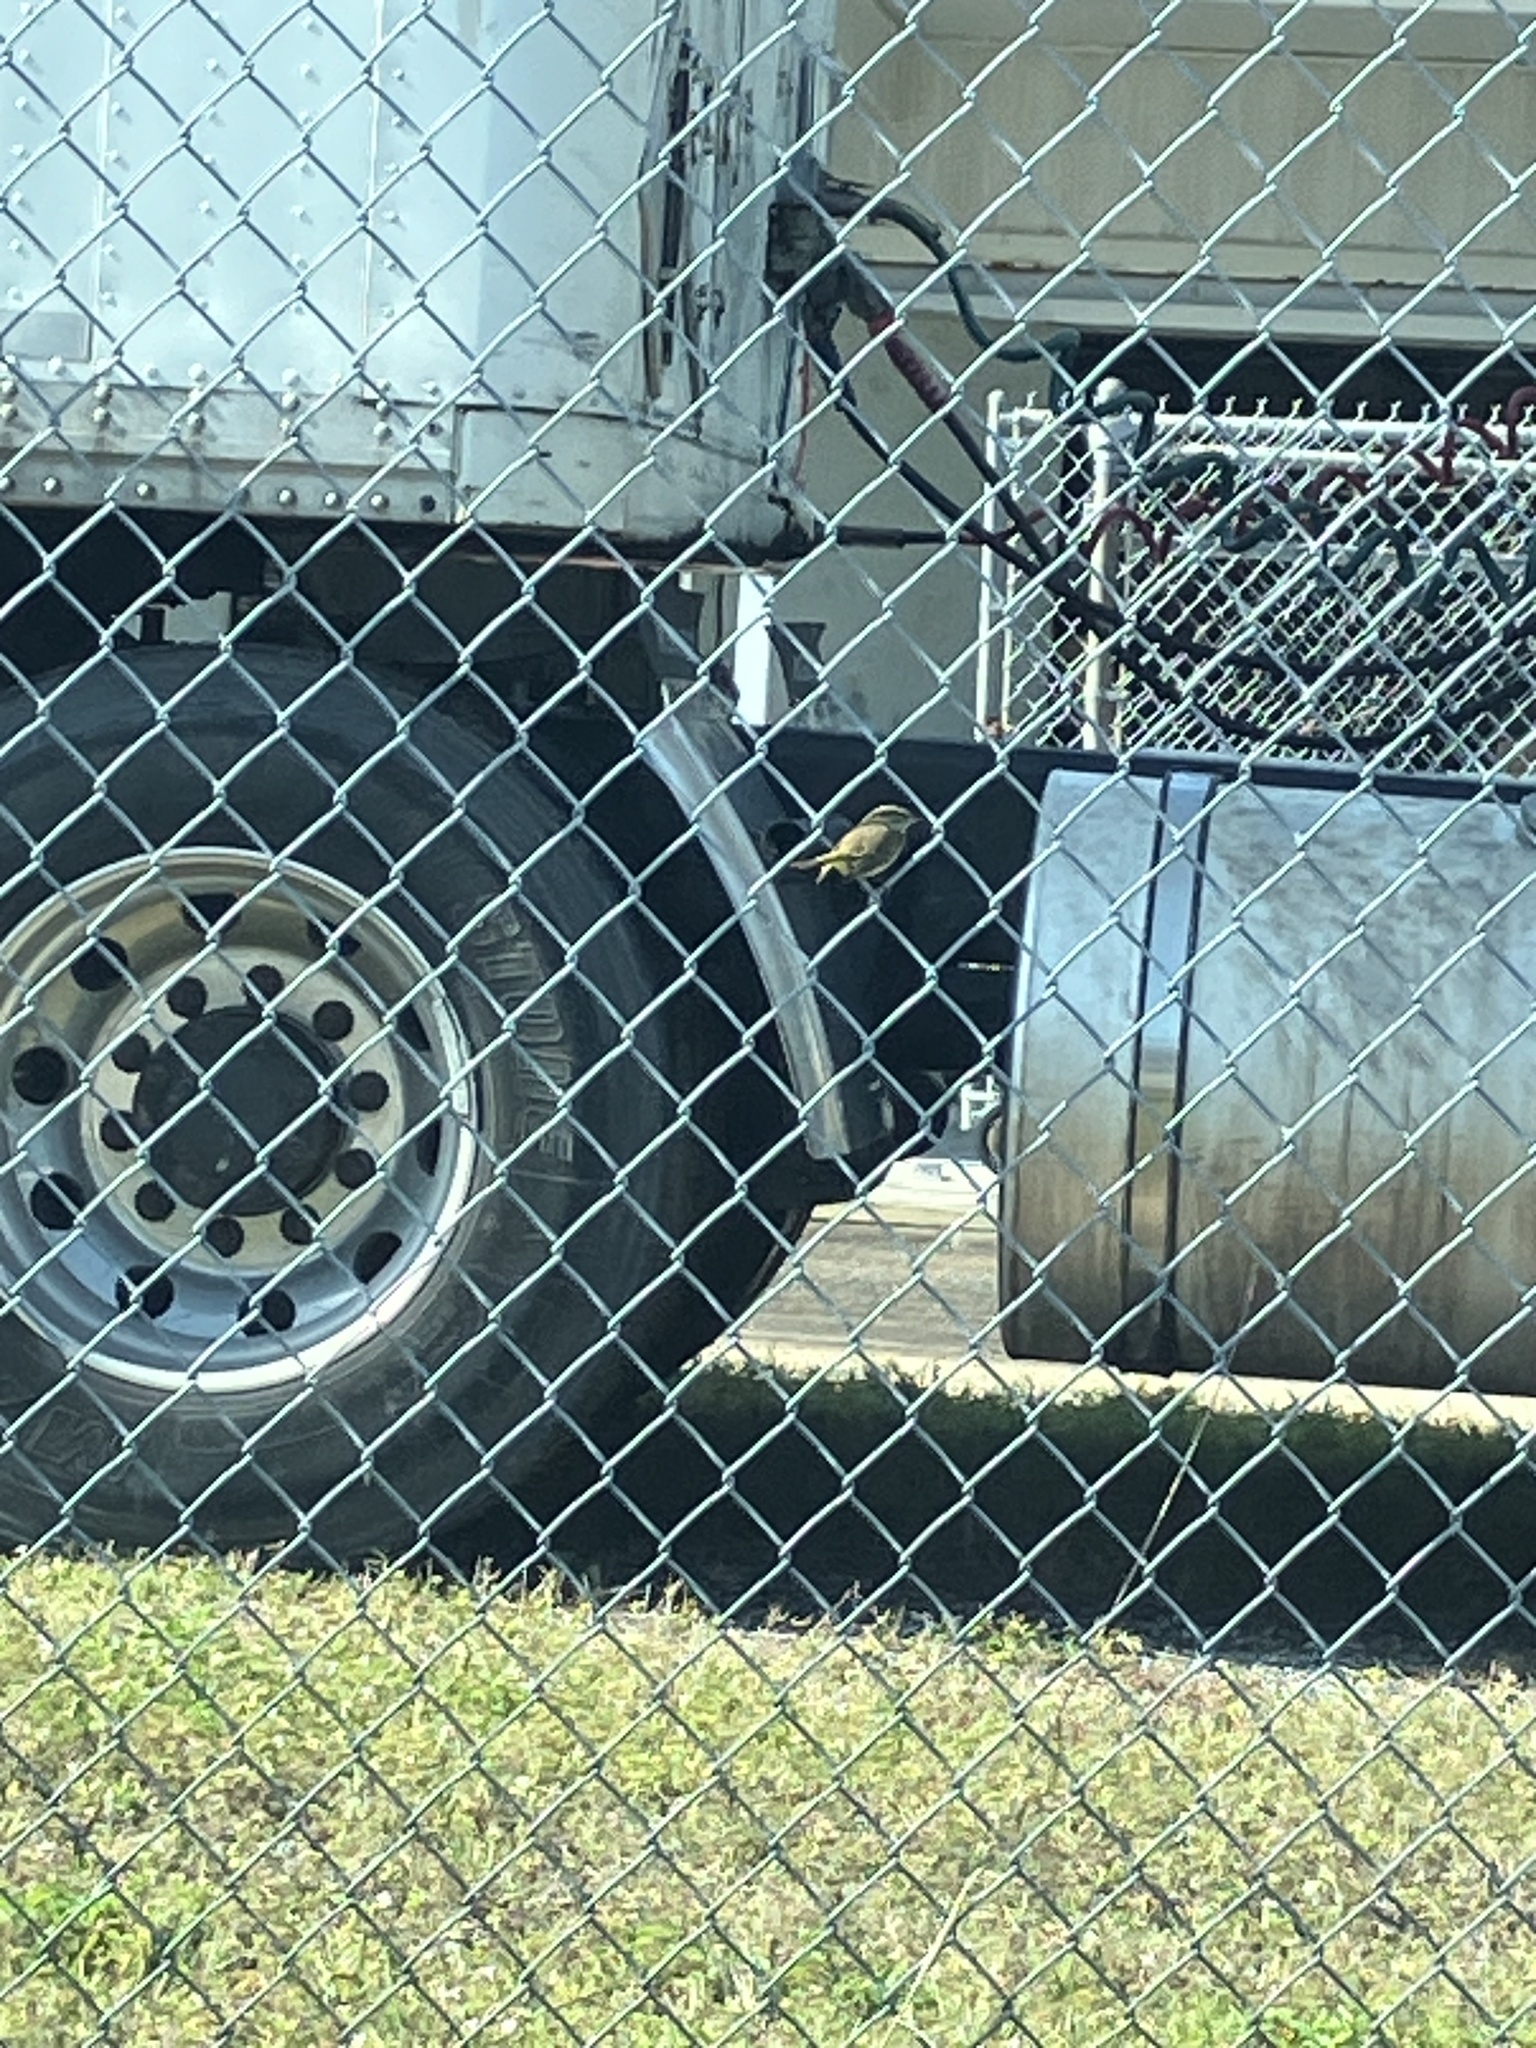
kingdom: Animalia
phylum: Chordata
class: Aves
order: Passeriformes
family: Parulidae
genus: Setophaga
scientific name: Setophaga palmarum
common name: Palm warbler
